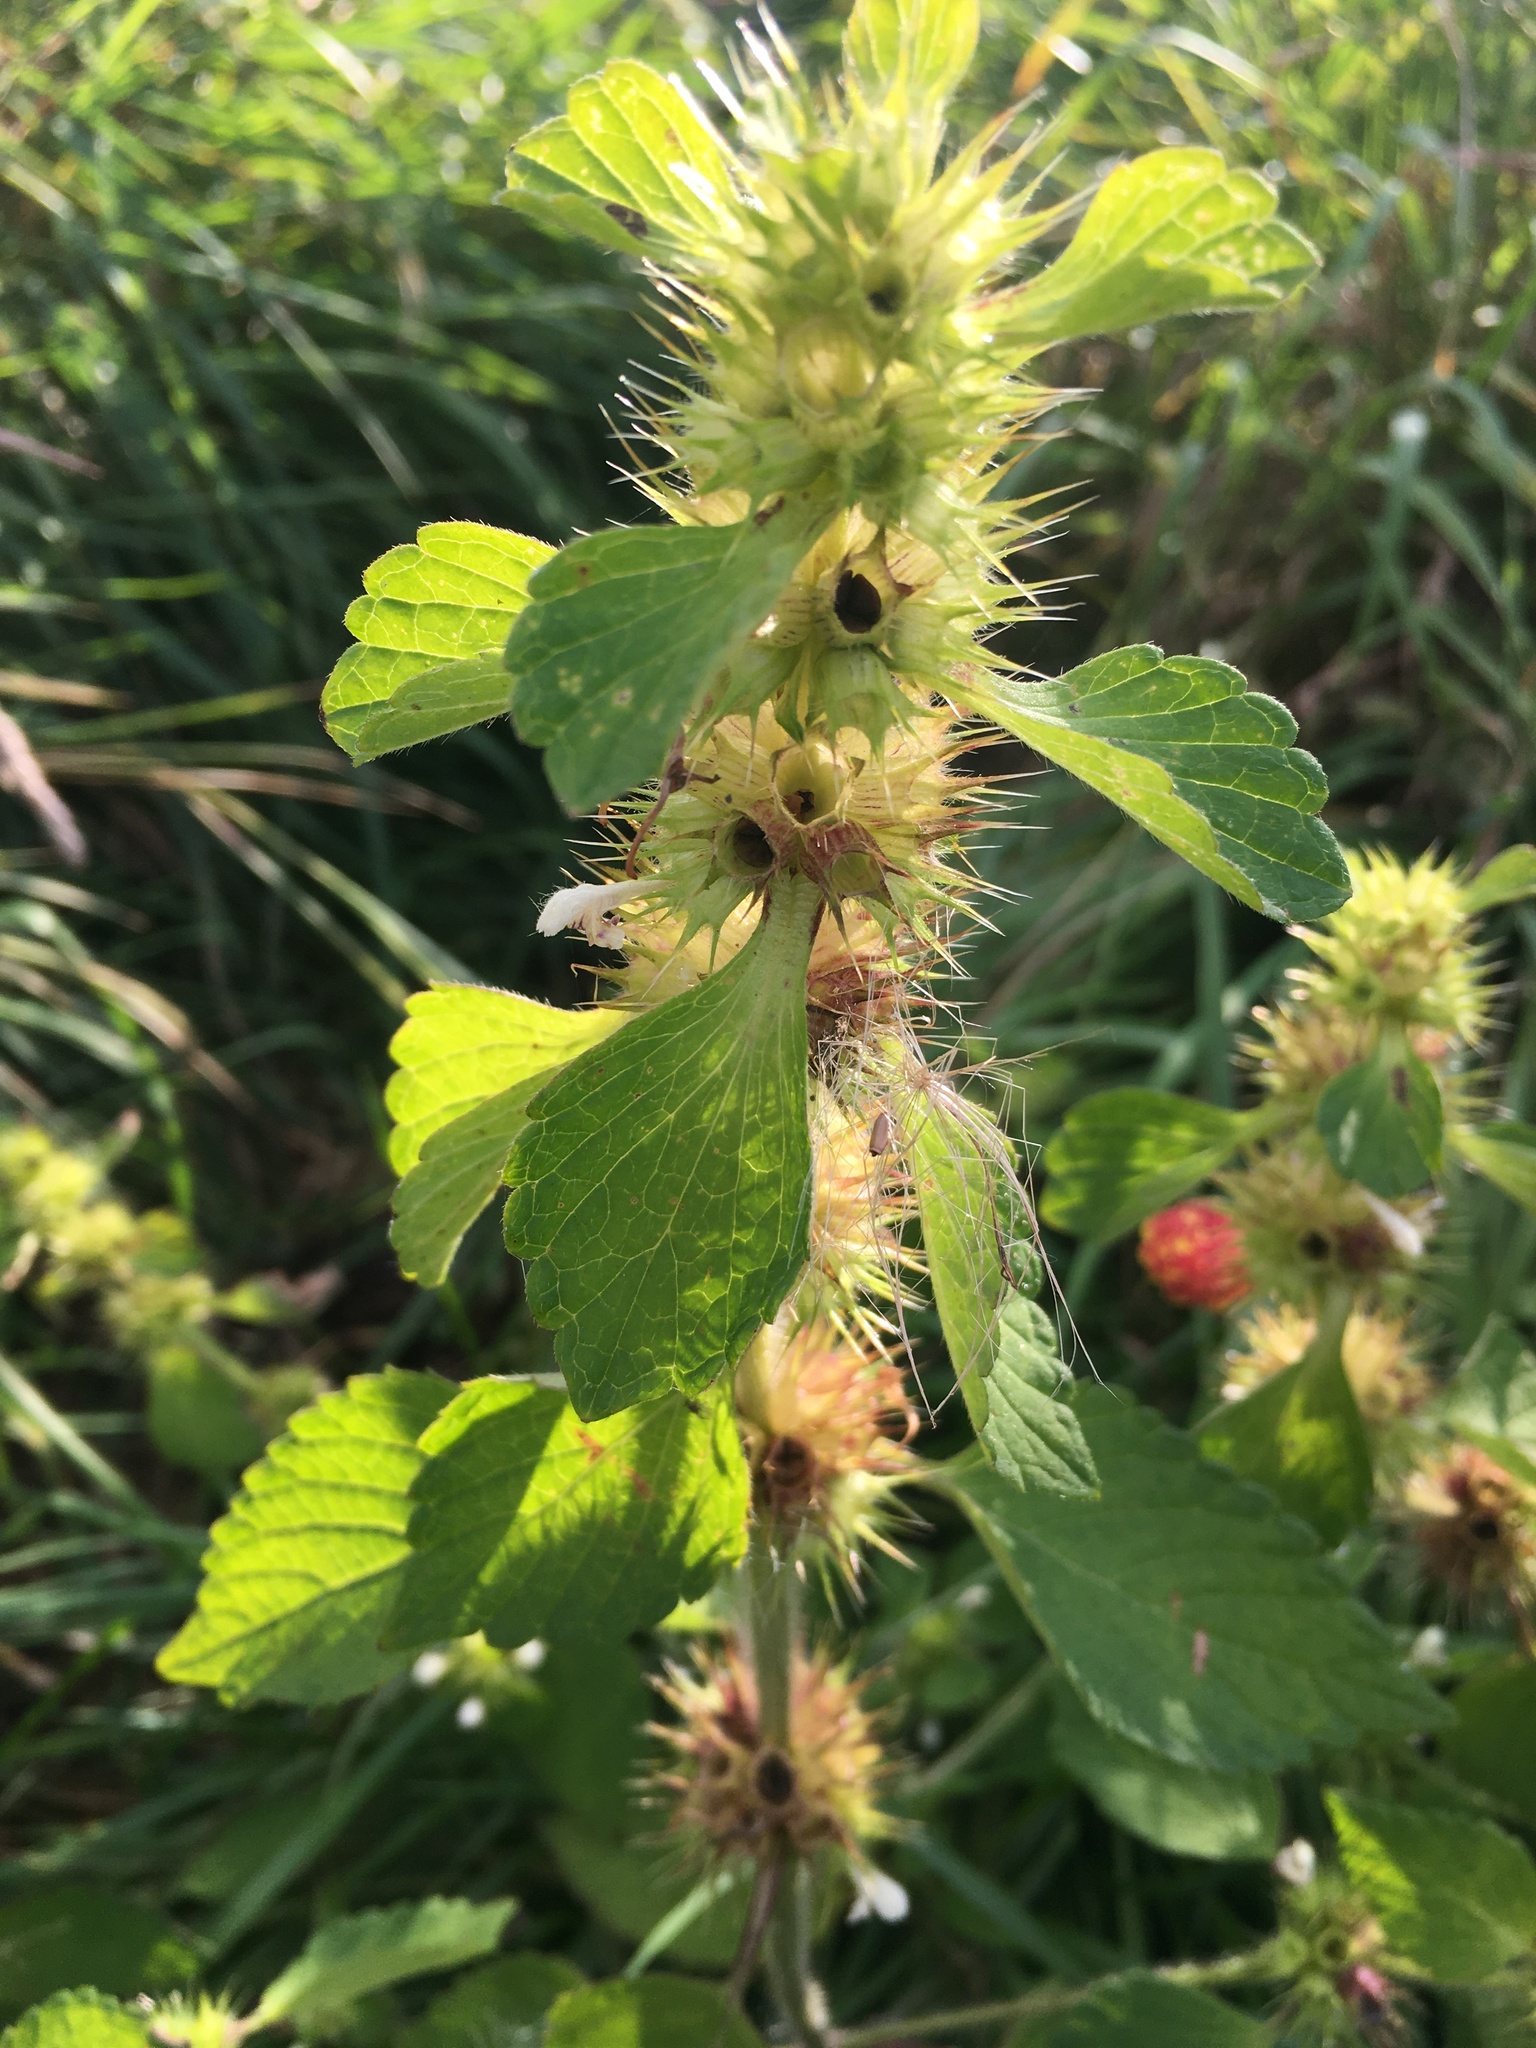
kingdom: Plantae
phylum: Tracheophyta
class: Magnoliopsida
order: Lamiales
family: Lamiaceae
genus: Galeopsis
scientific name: Galeopsis
